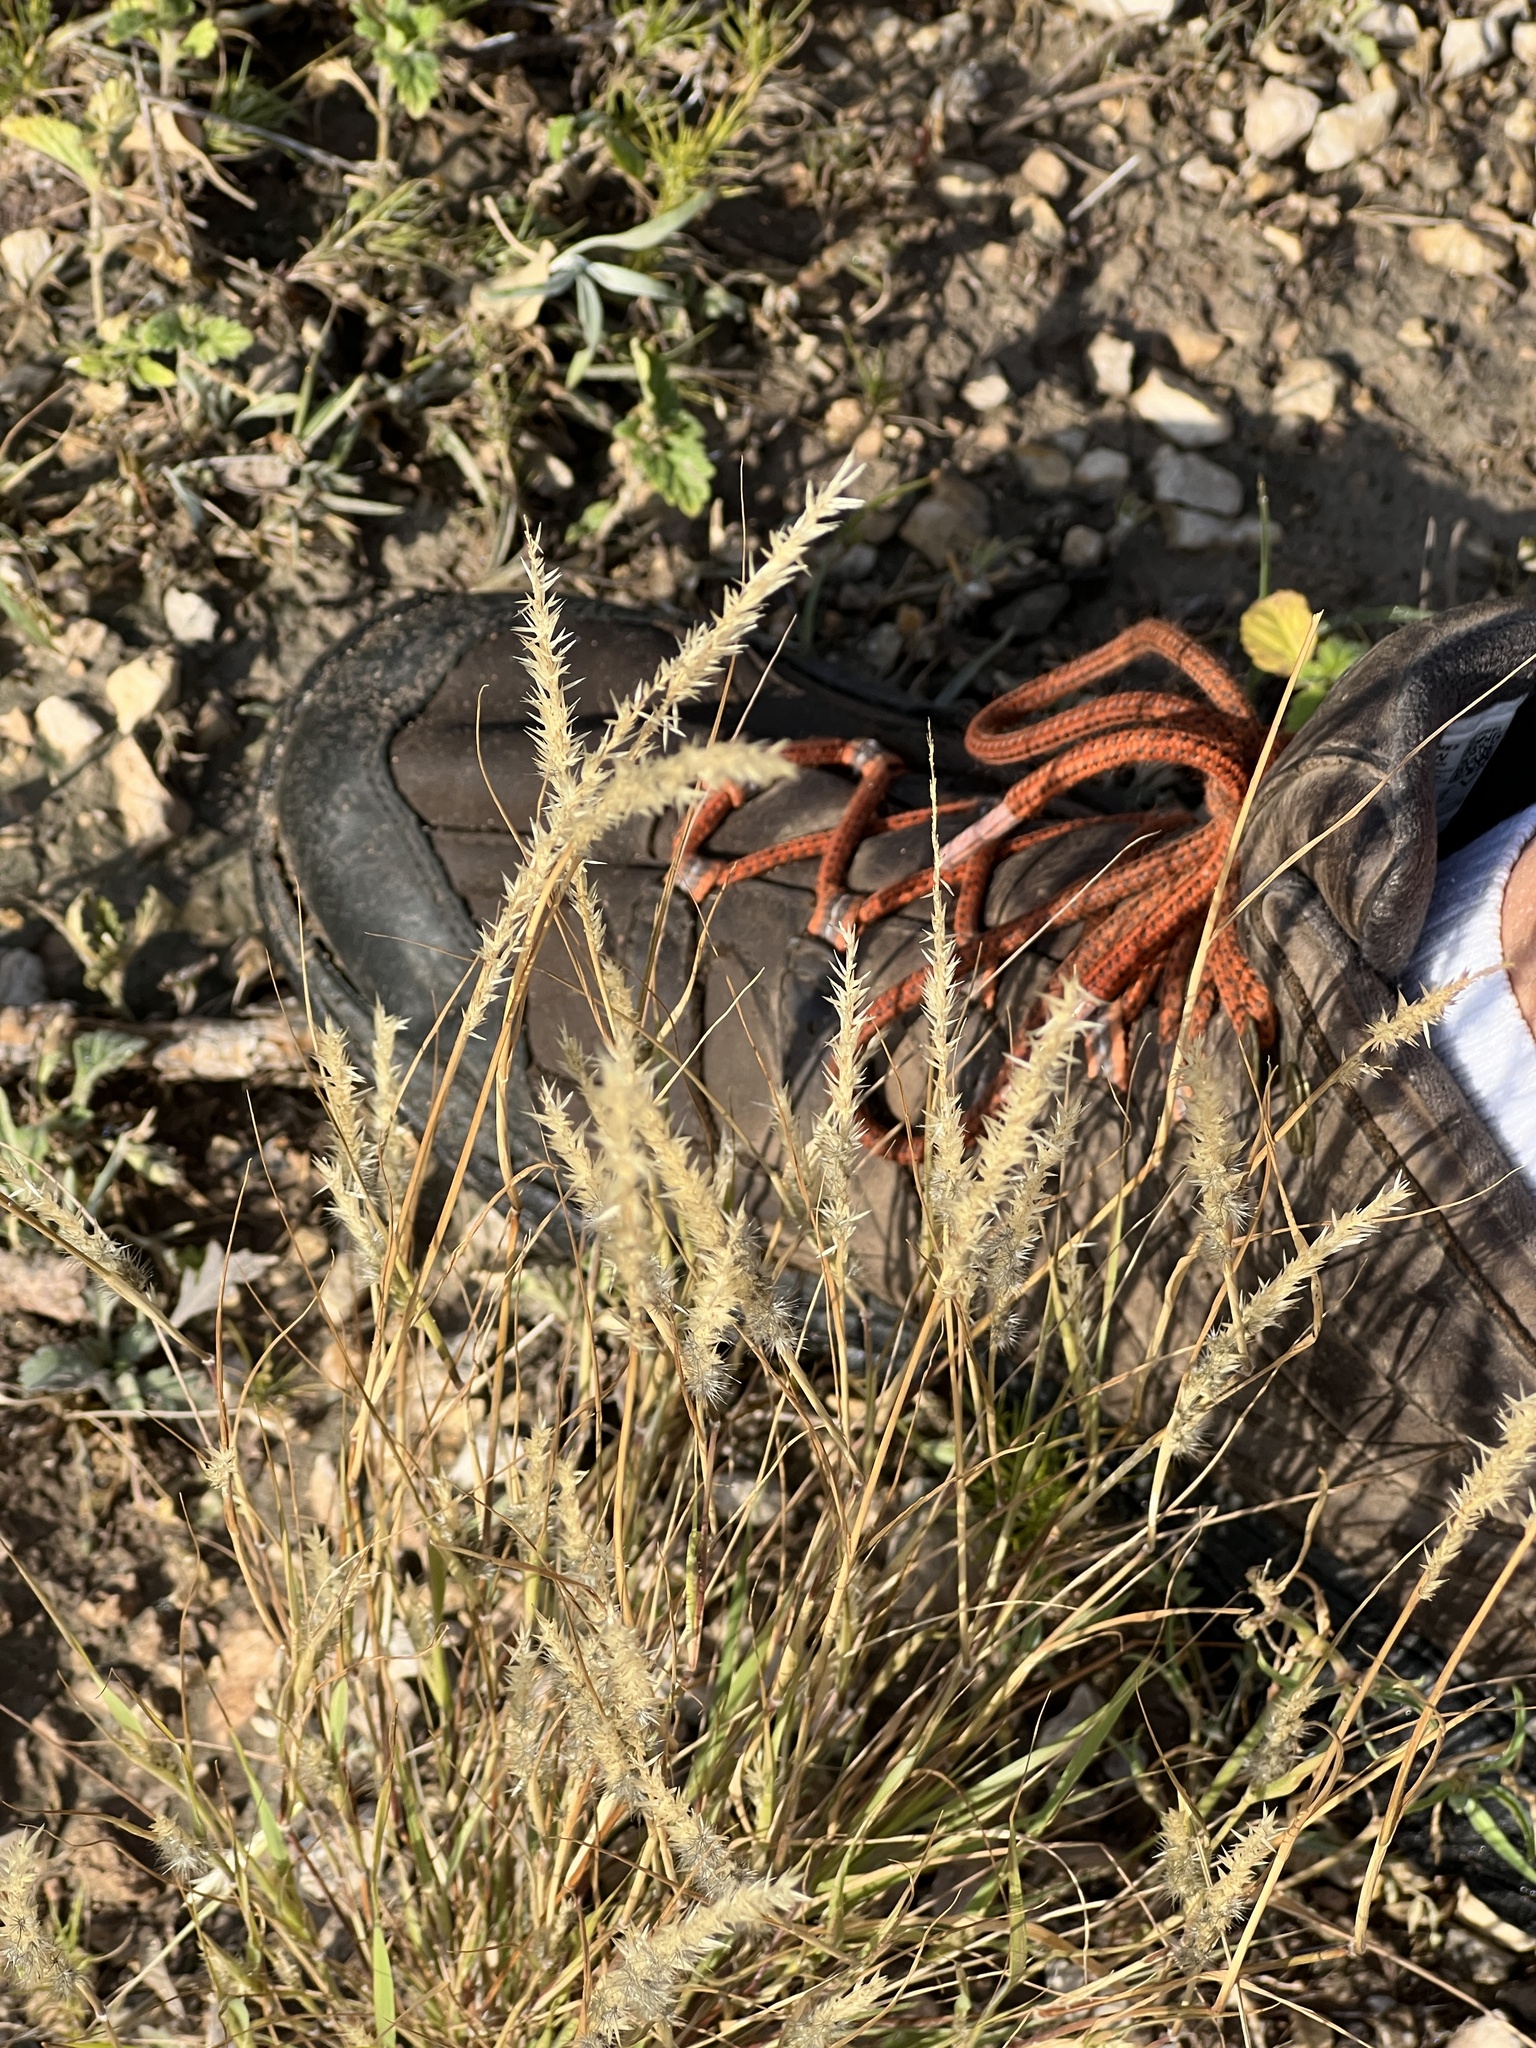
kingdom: Plantae
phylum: Tracheophyta
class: Liliopsida
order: Poales
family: Poaceae
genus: Muhlenbergia
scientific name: Muhlenbergia phleoides
